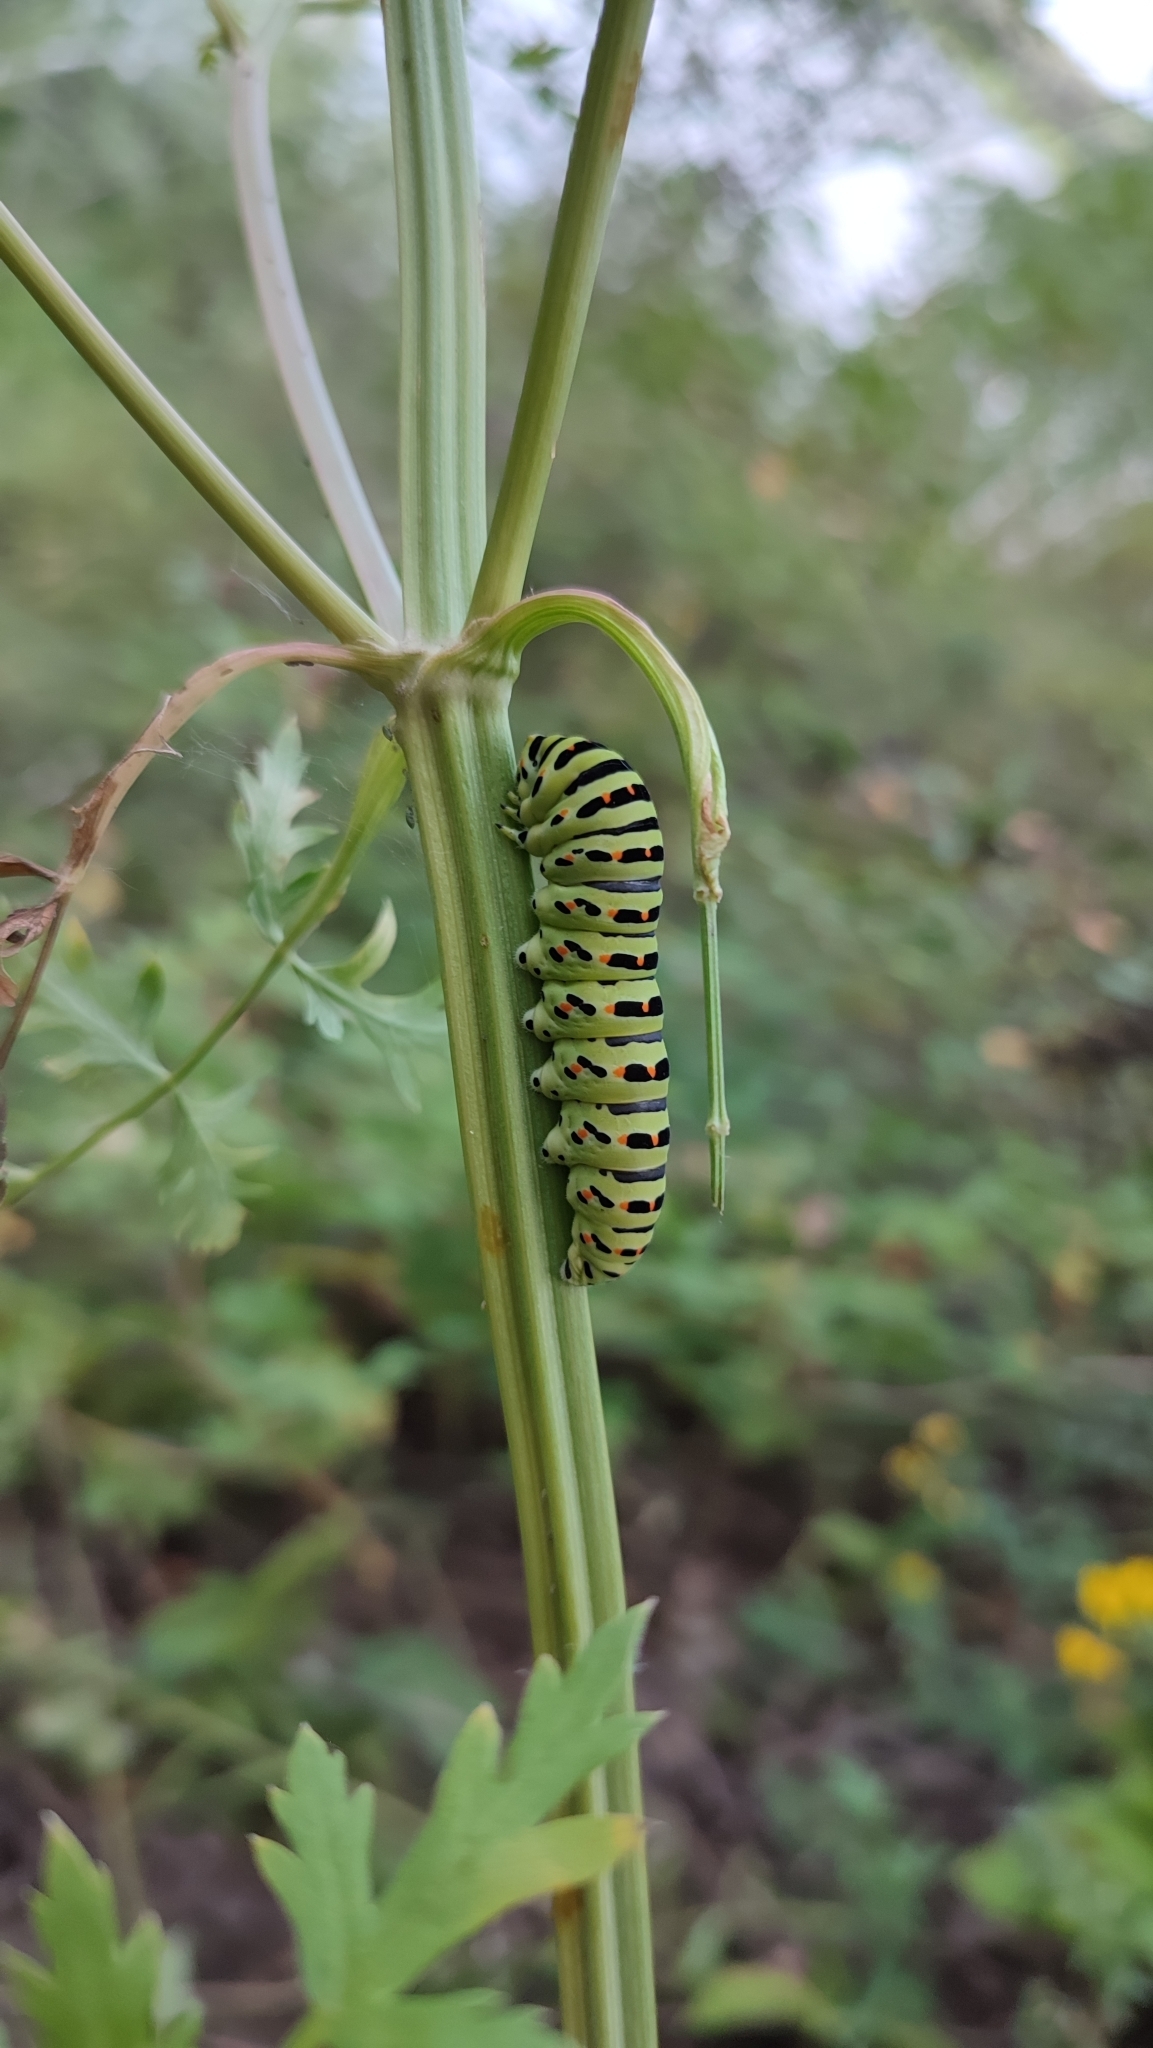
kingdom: Animalia
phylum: Arthropoda
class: Insecta
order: Lepidoptera
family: Papilionidae
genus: Papilio
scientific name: Papilio machaon
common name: Swallowtail
